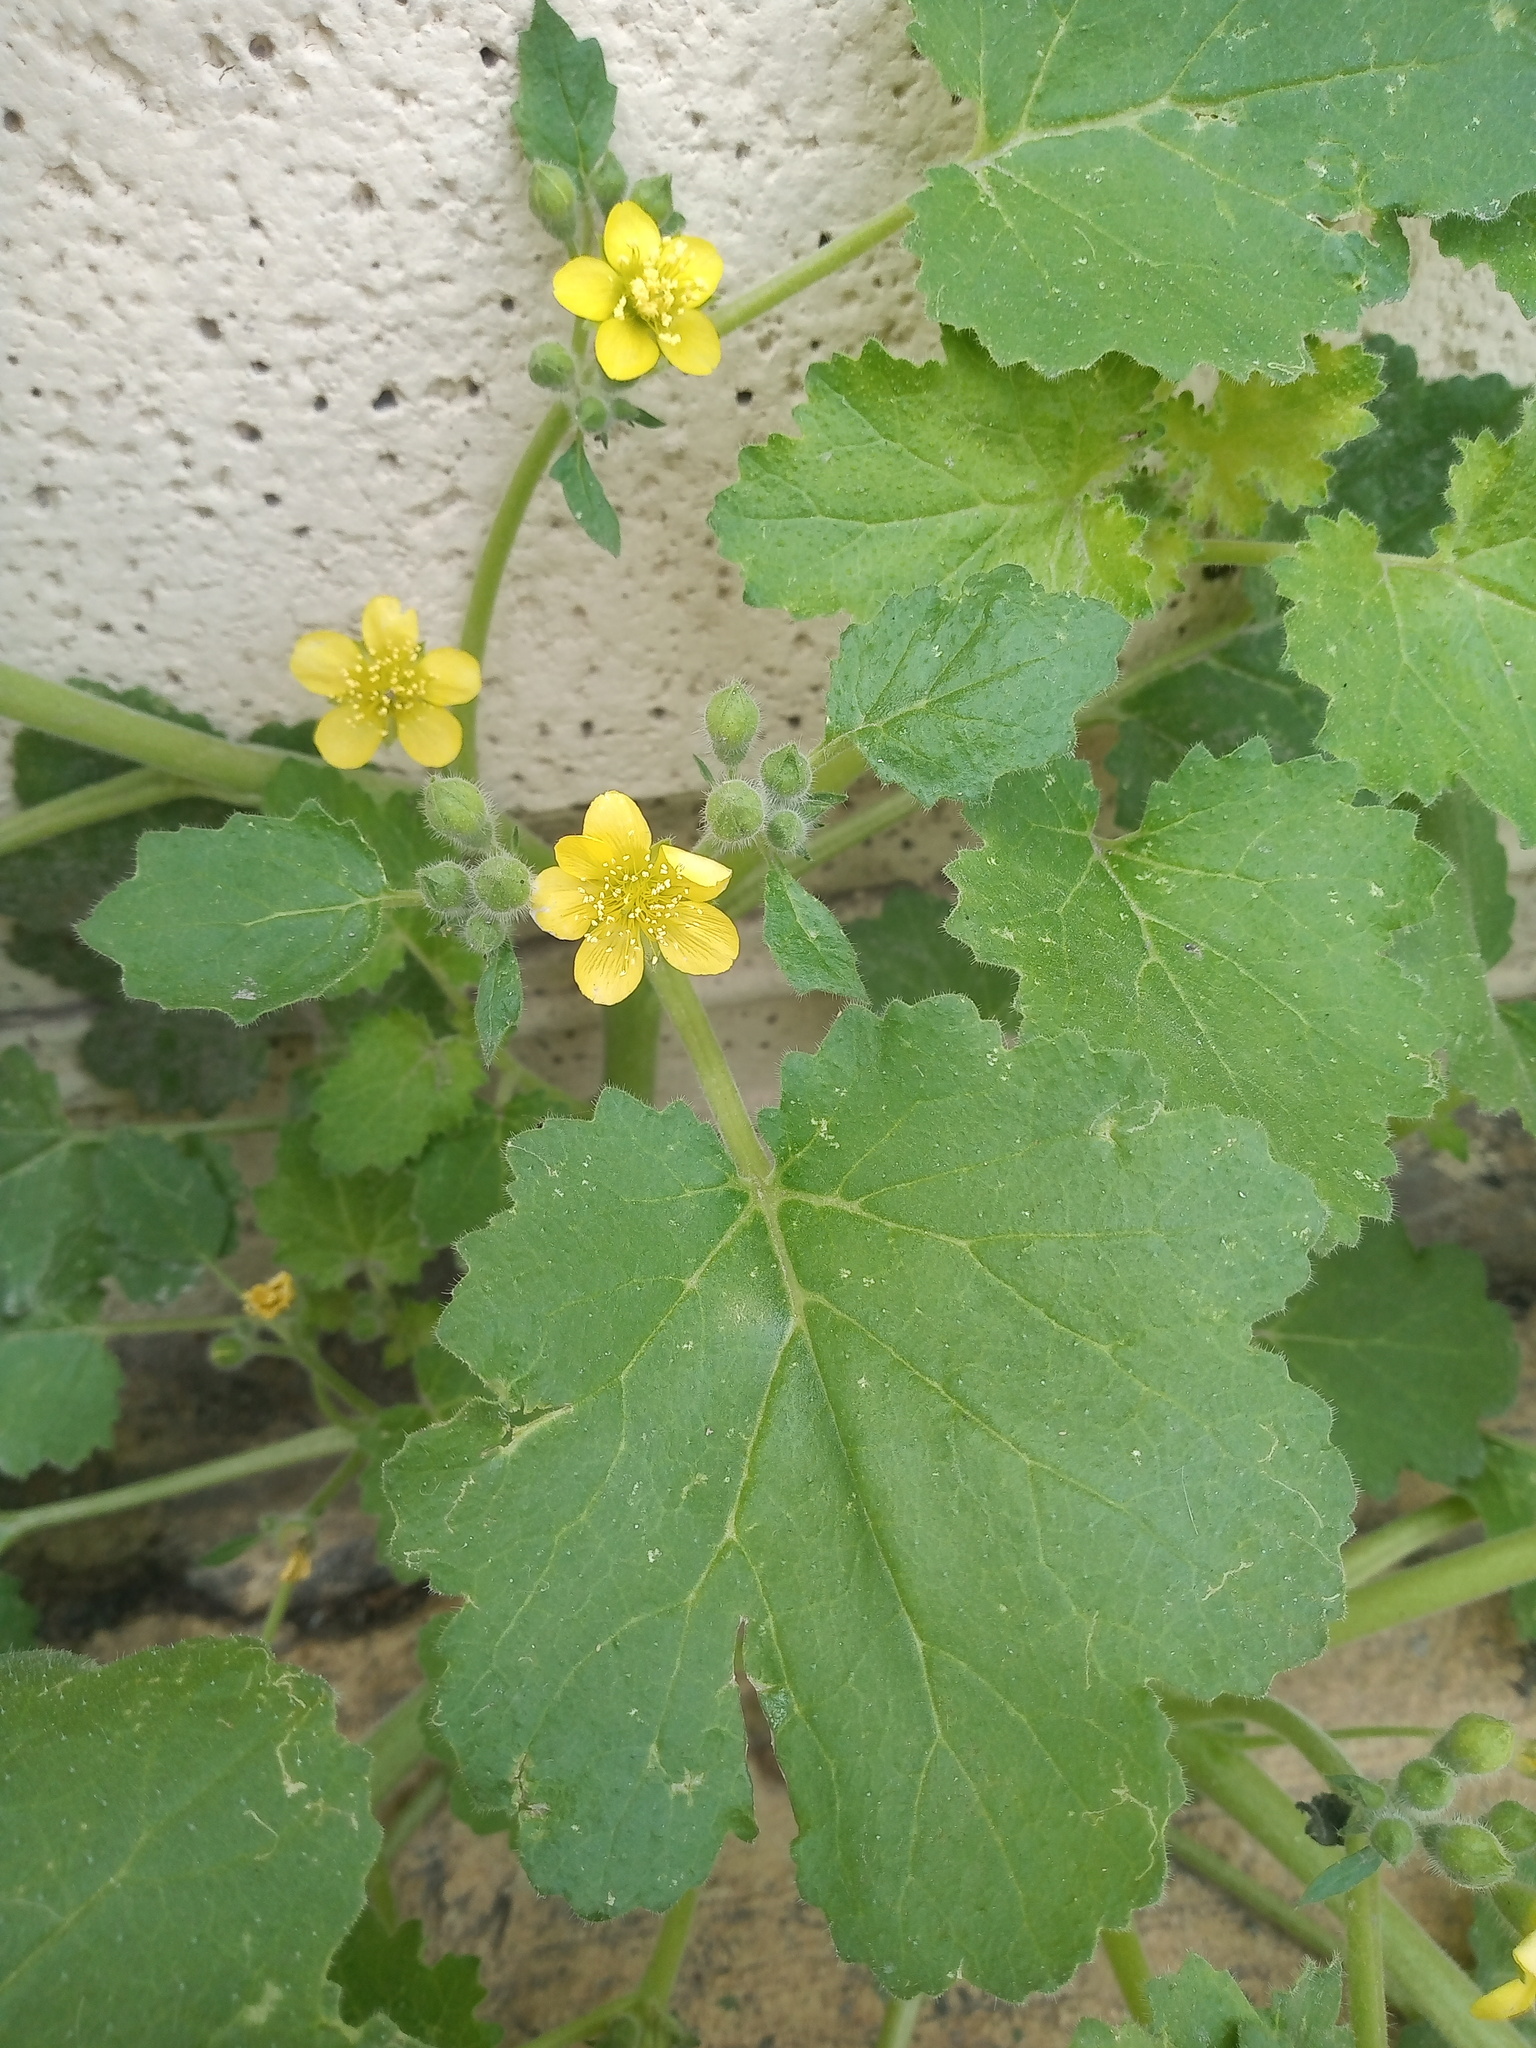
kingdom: Plantae
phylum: Tracheophyta
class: Magnoliopsida
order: Cornales
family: Loasaceae
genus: Eucnide
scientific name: Eucnide lobata
